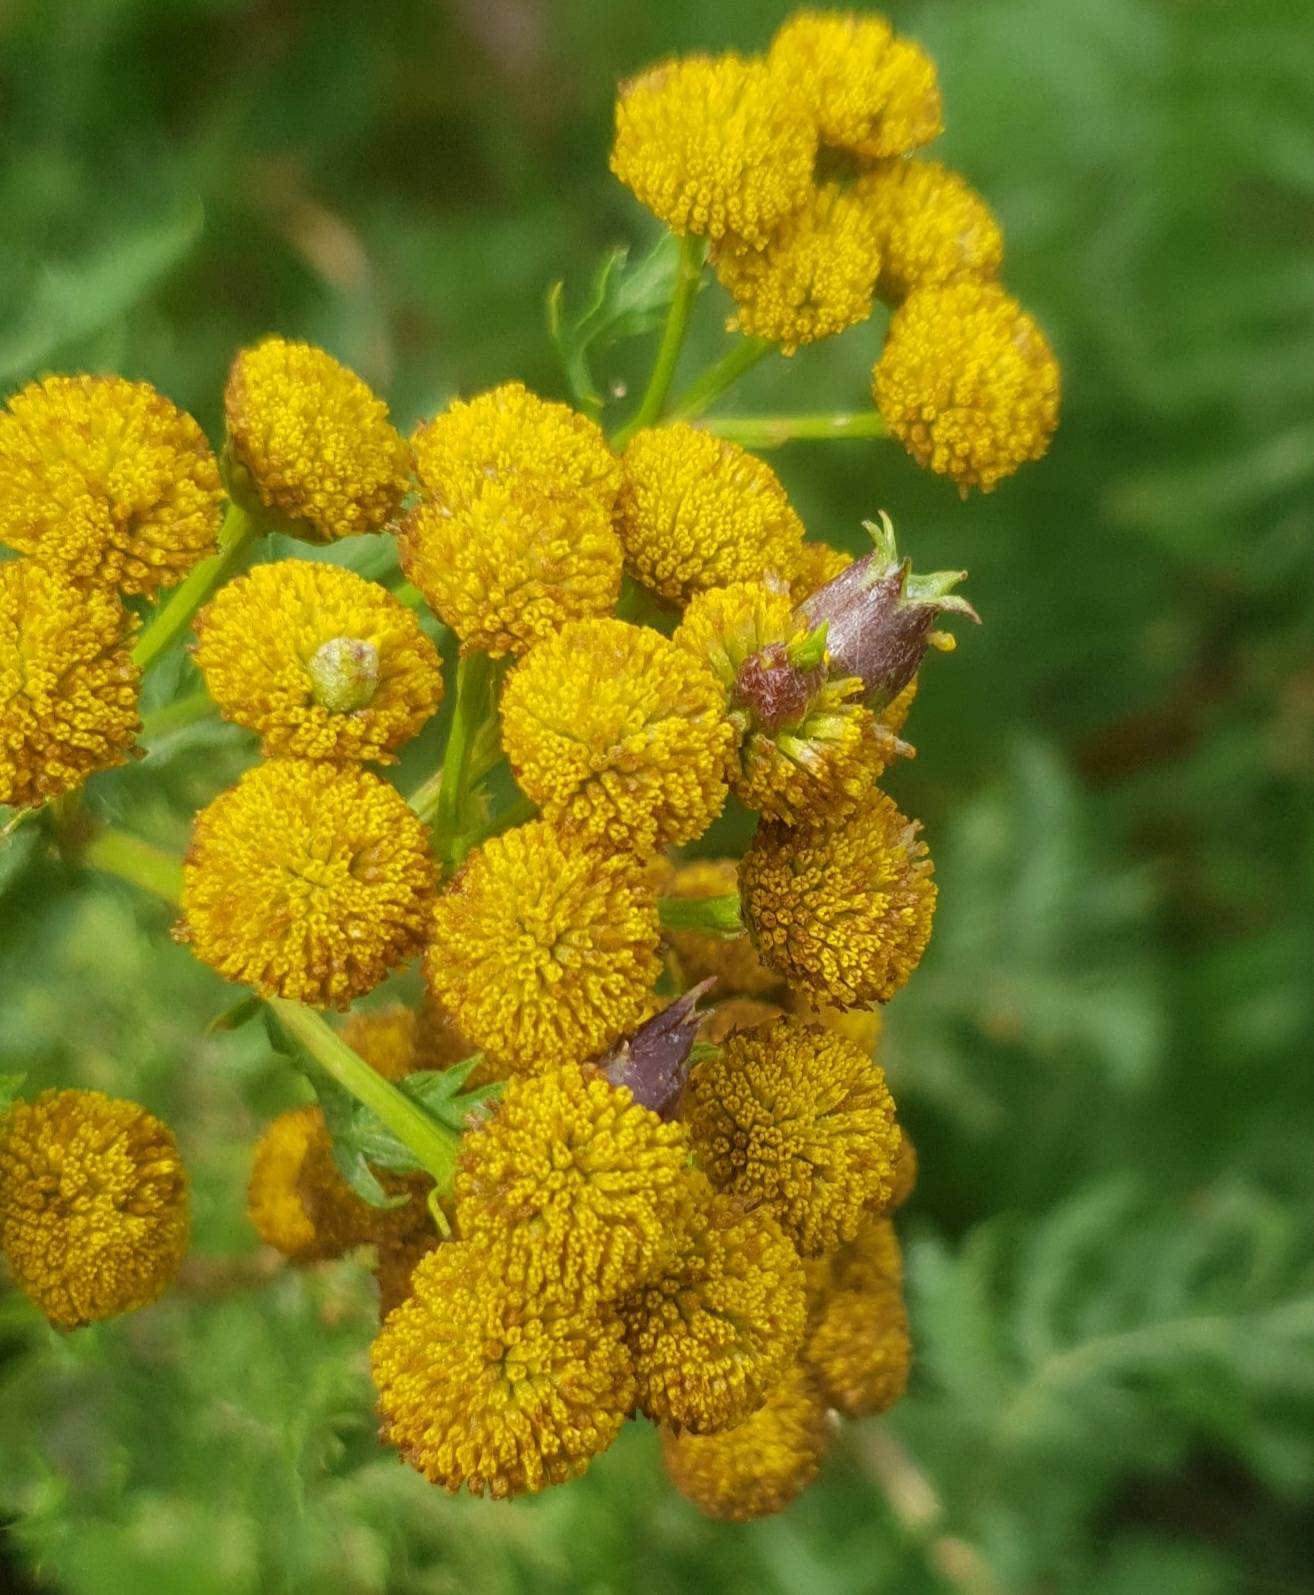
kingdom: Animalia
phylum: Arthropoda
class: Insecta
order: Diptera
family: Cecidomyiidae
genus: Rhopalomyia
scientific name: Rhopalomyia tanaceticolus
